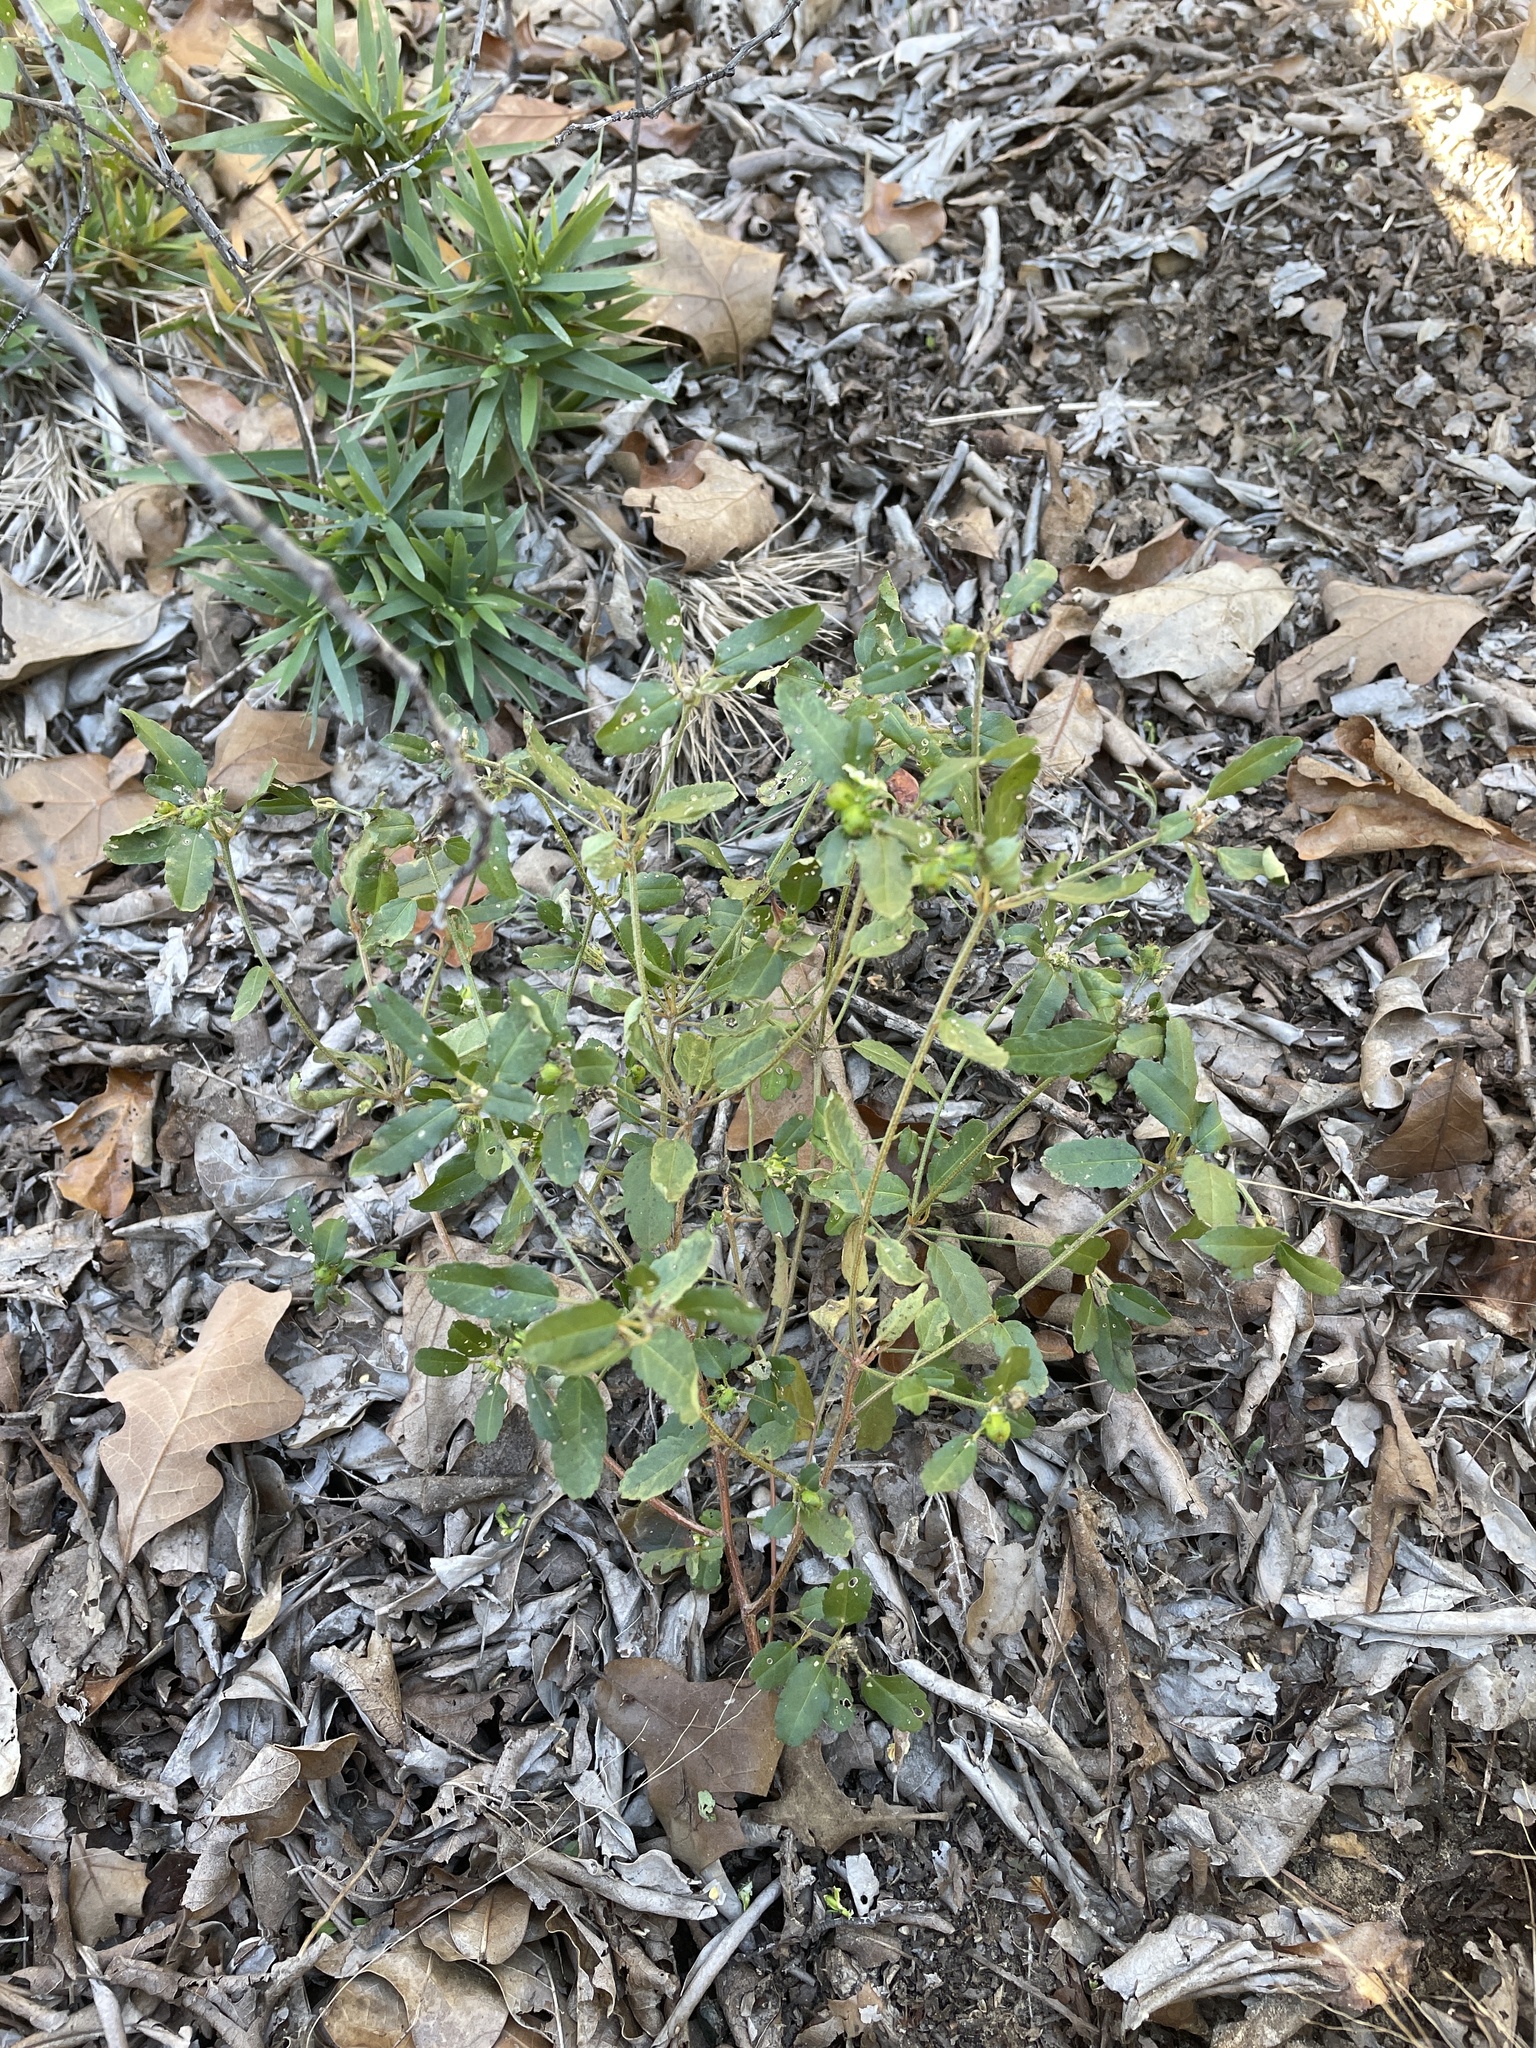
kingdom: Plantae
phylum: Tracheophyta
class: Magnoliopsida
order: Malpighiales
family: Euphorbiaceae
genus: Croton
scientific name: Croton glandulosus
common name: Tropic croton
